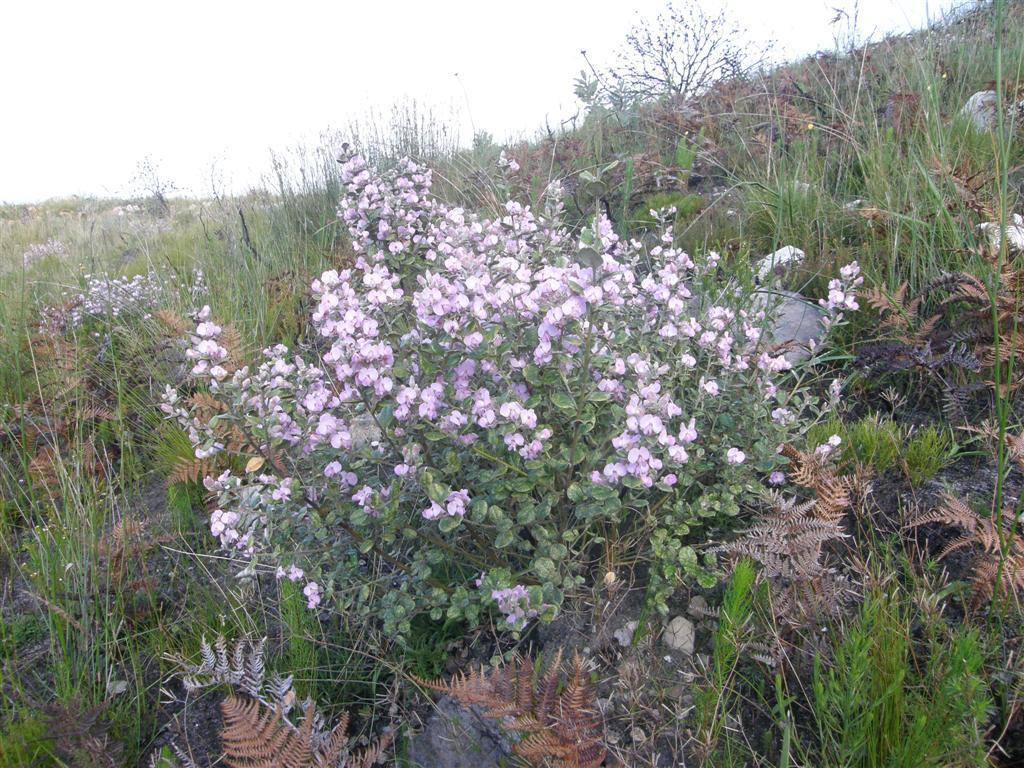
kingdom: Plantae
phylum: Tracheophyta
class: Magnoliopsida
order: Fabales
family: Fabaceae
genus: Podalyria
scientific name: Podalyria orbicularis
